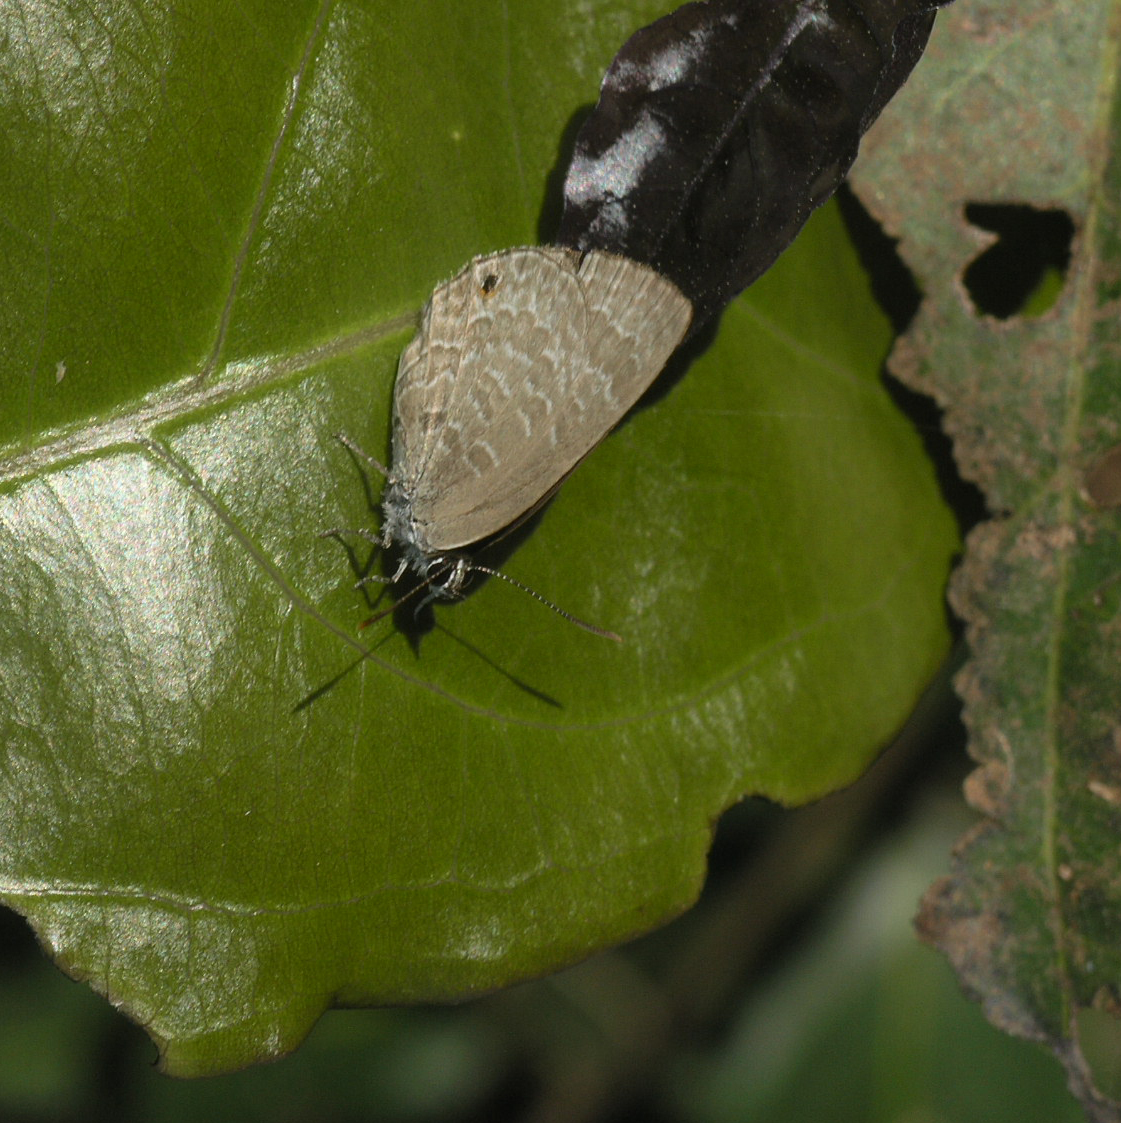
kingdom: Animalia
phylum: Arthropoda
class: Insecta
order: Lepidoptera
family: Lycaenidae
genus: Anthene
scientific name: Anthene emolus
